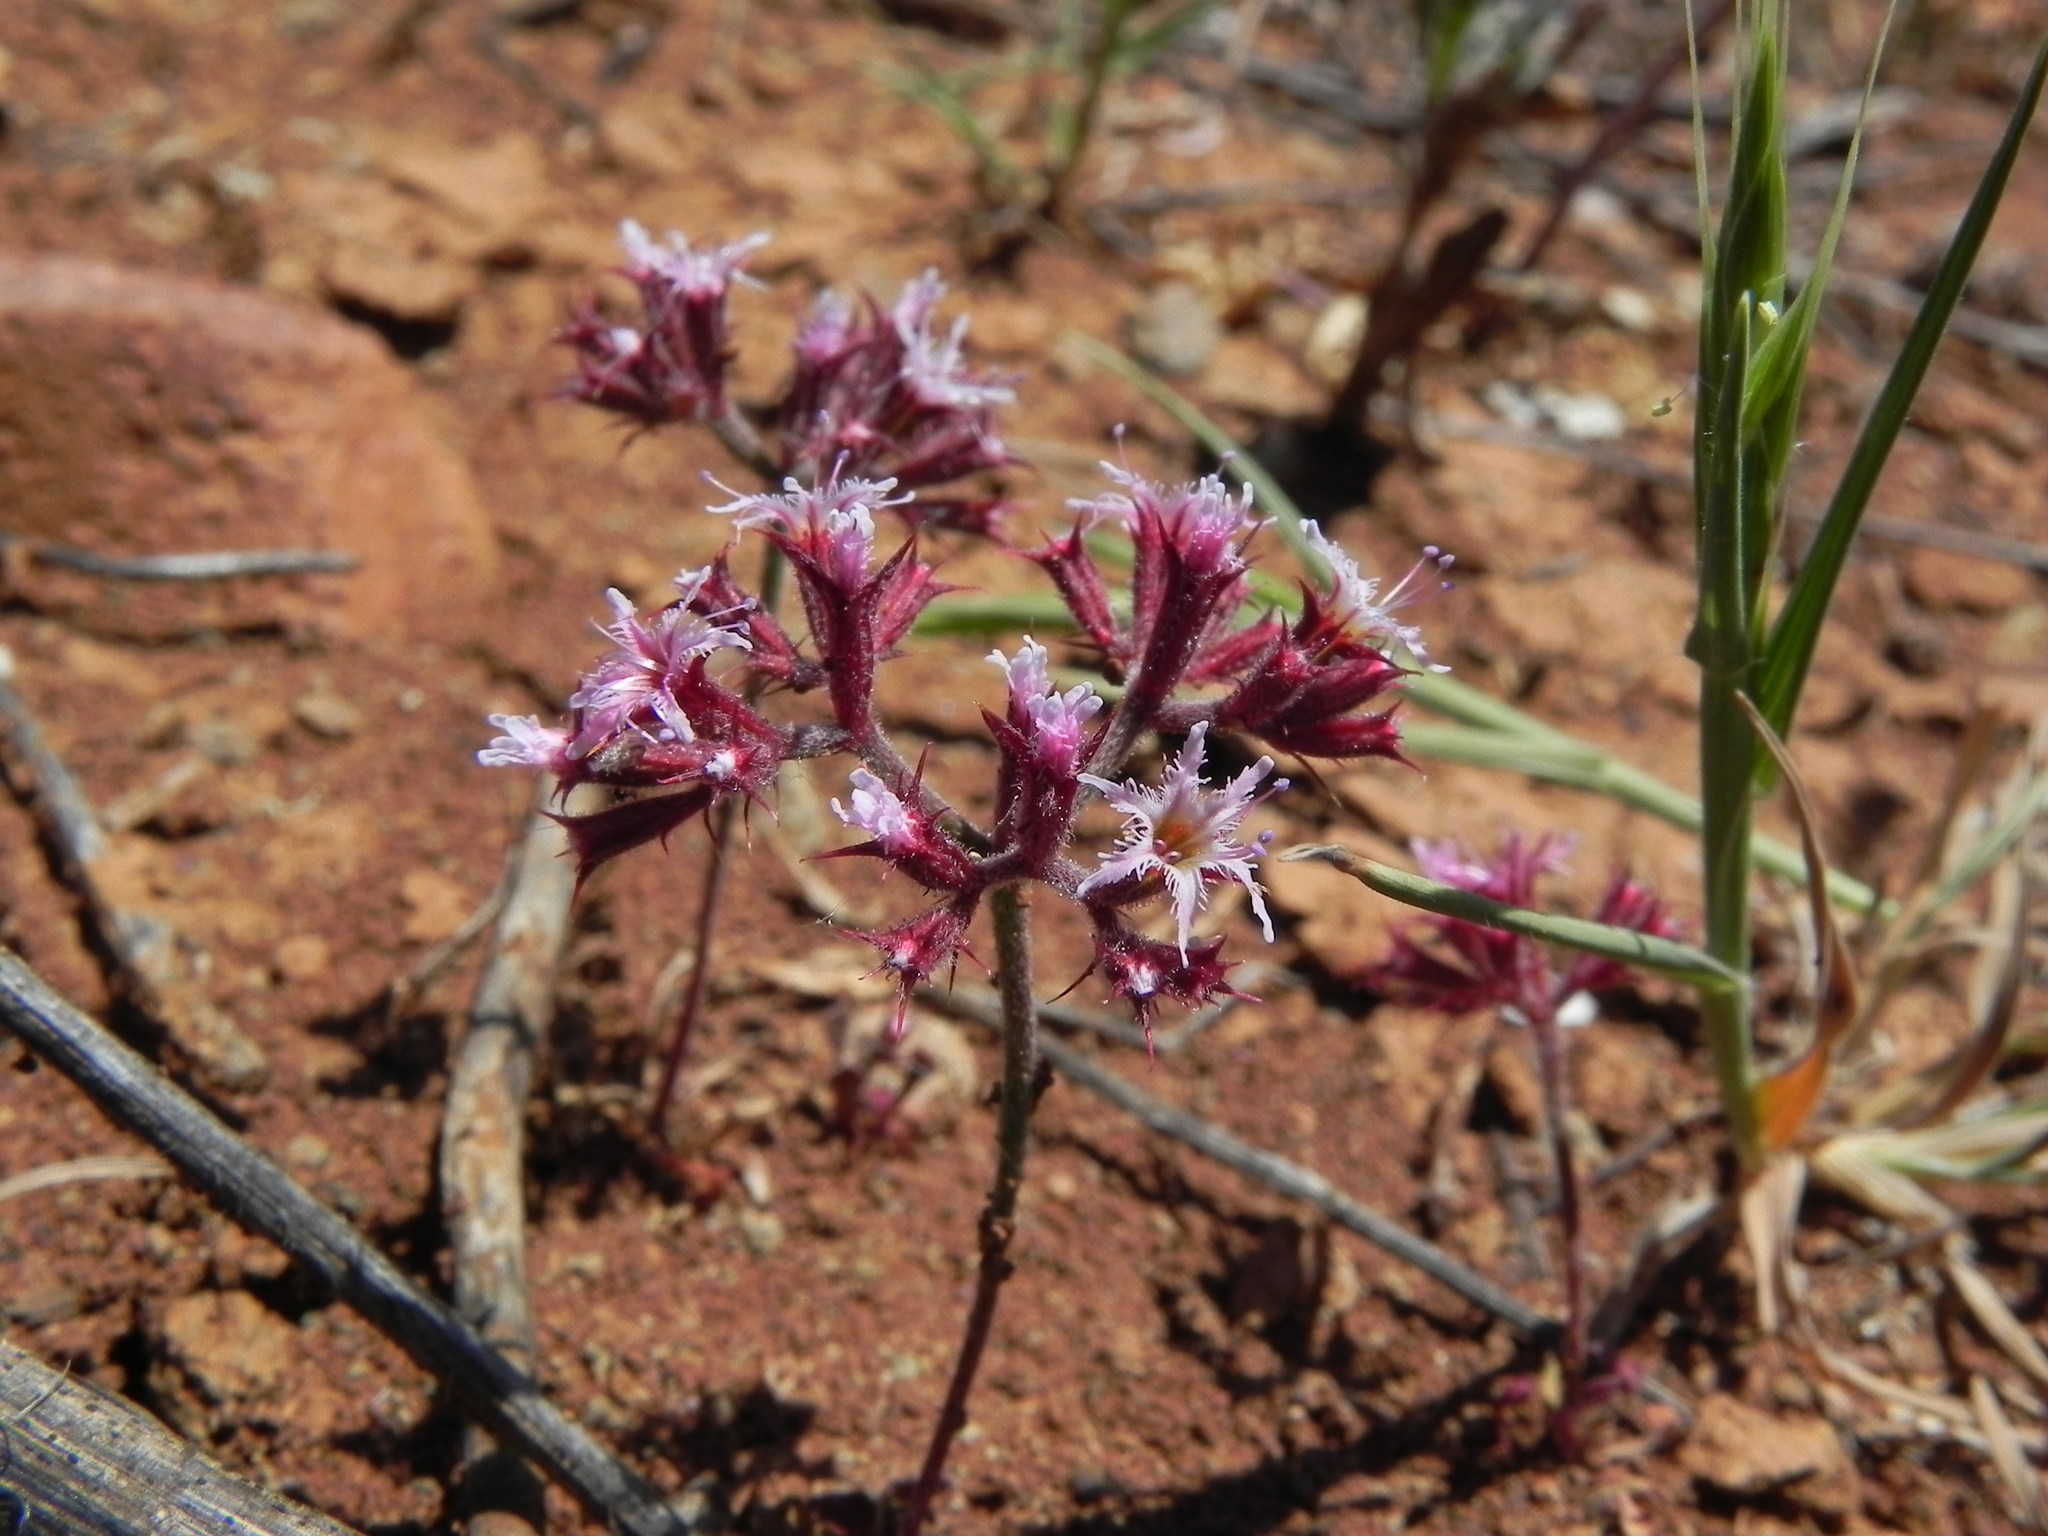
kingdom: Plantae
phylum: Tracheophyta
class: Magnoliopsida
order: Caryophyllales
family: Polygonaceae
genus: Chorizanthe
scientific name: Chorizanthe fimbriata
